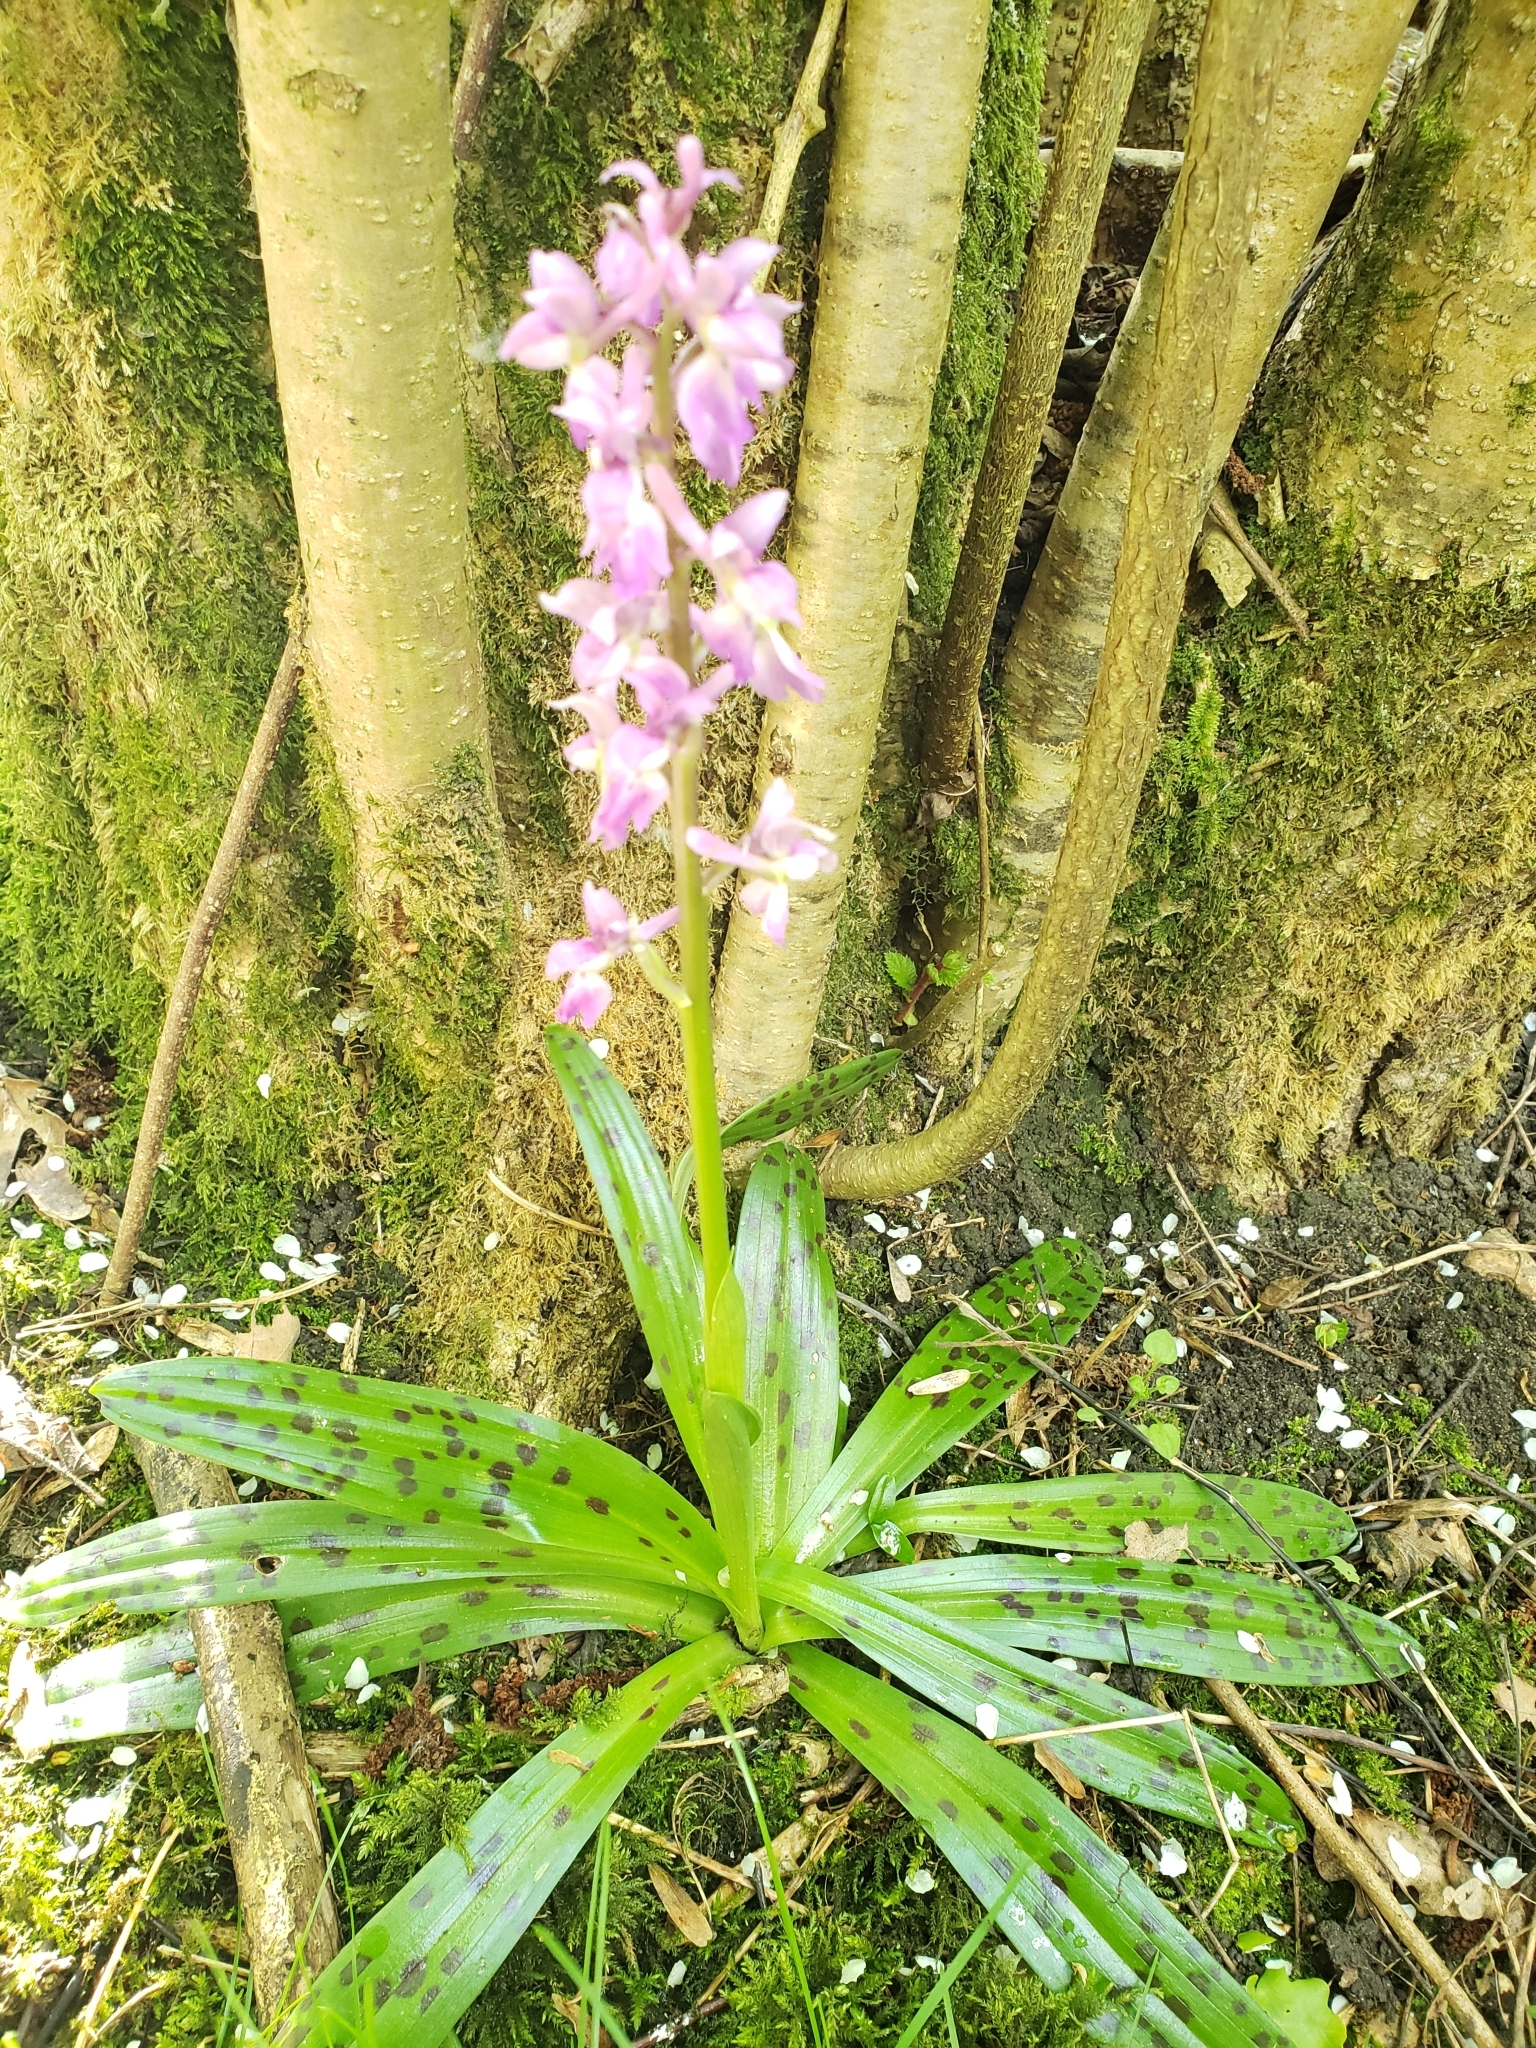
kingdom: Plantae
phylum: Tracheophyta
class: Liliopsida
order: Asparagales
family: Orchidaceae
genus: Orchis
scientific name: Orchis mascula
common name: Early-purple orchid
